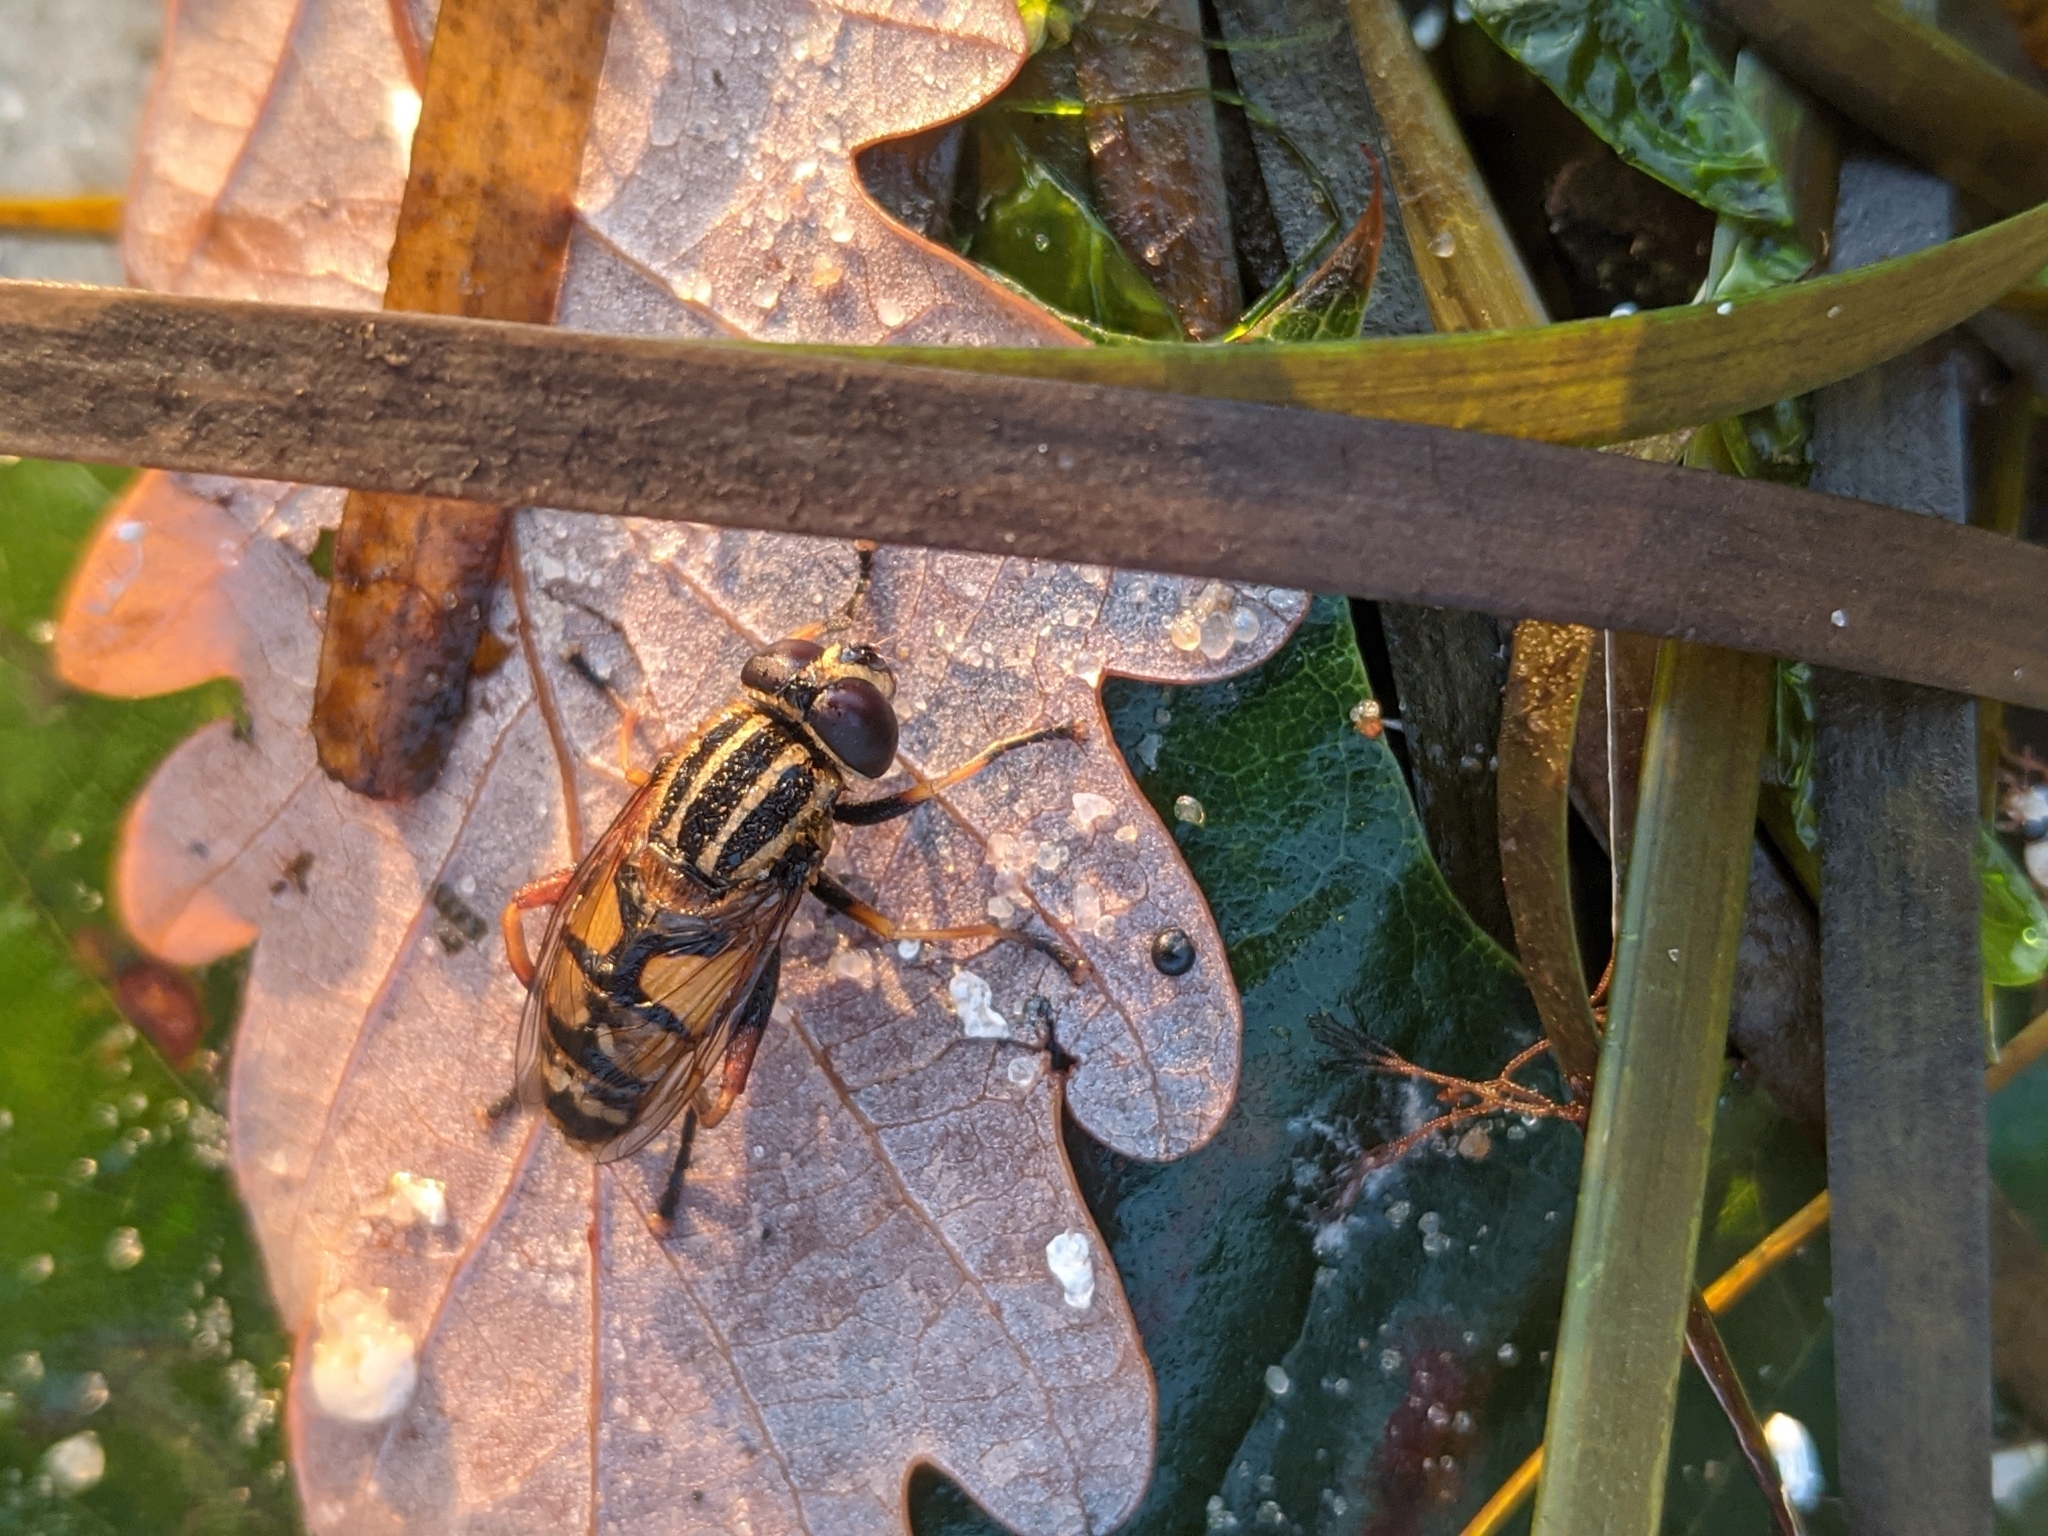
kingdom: Animalia
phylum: Arthropoda
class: Insecta
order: Diptera
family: Syrphidae
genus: Helophilus
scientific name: Helophilus pendulus
